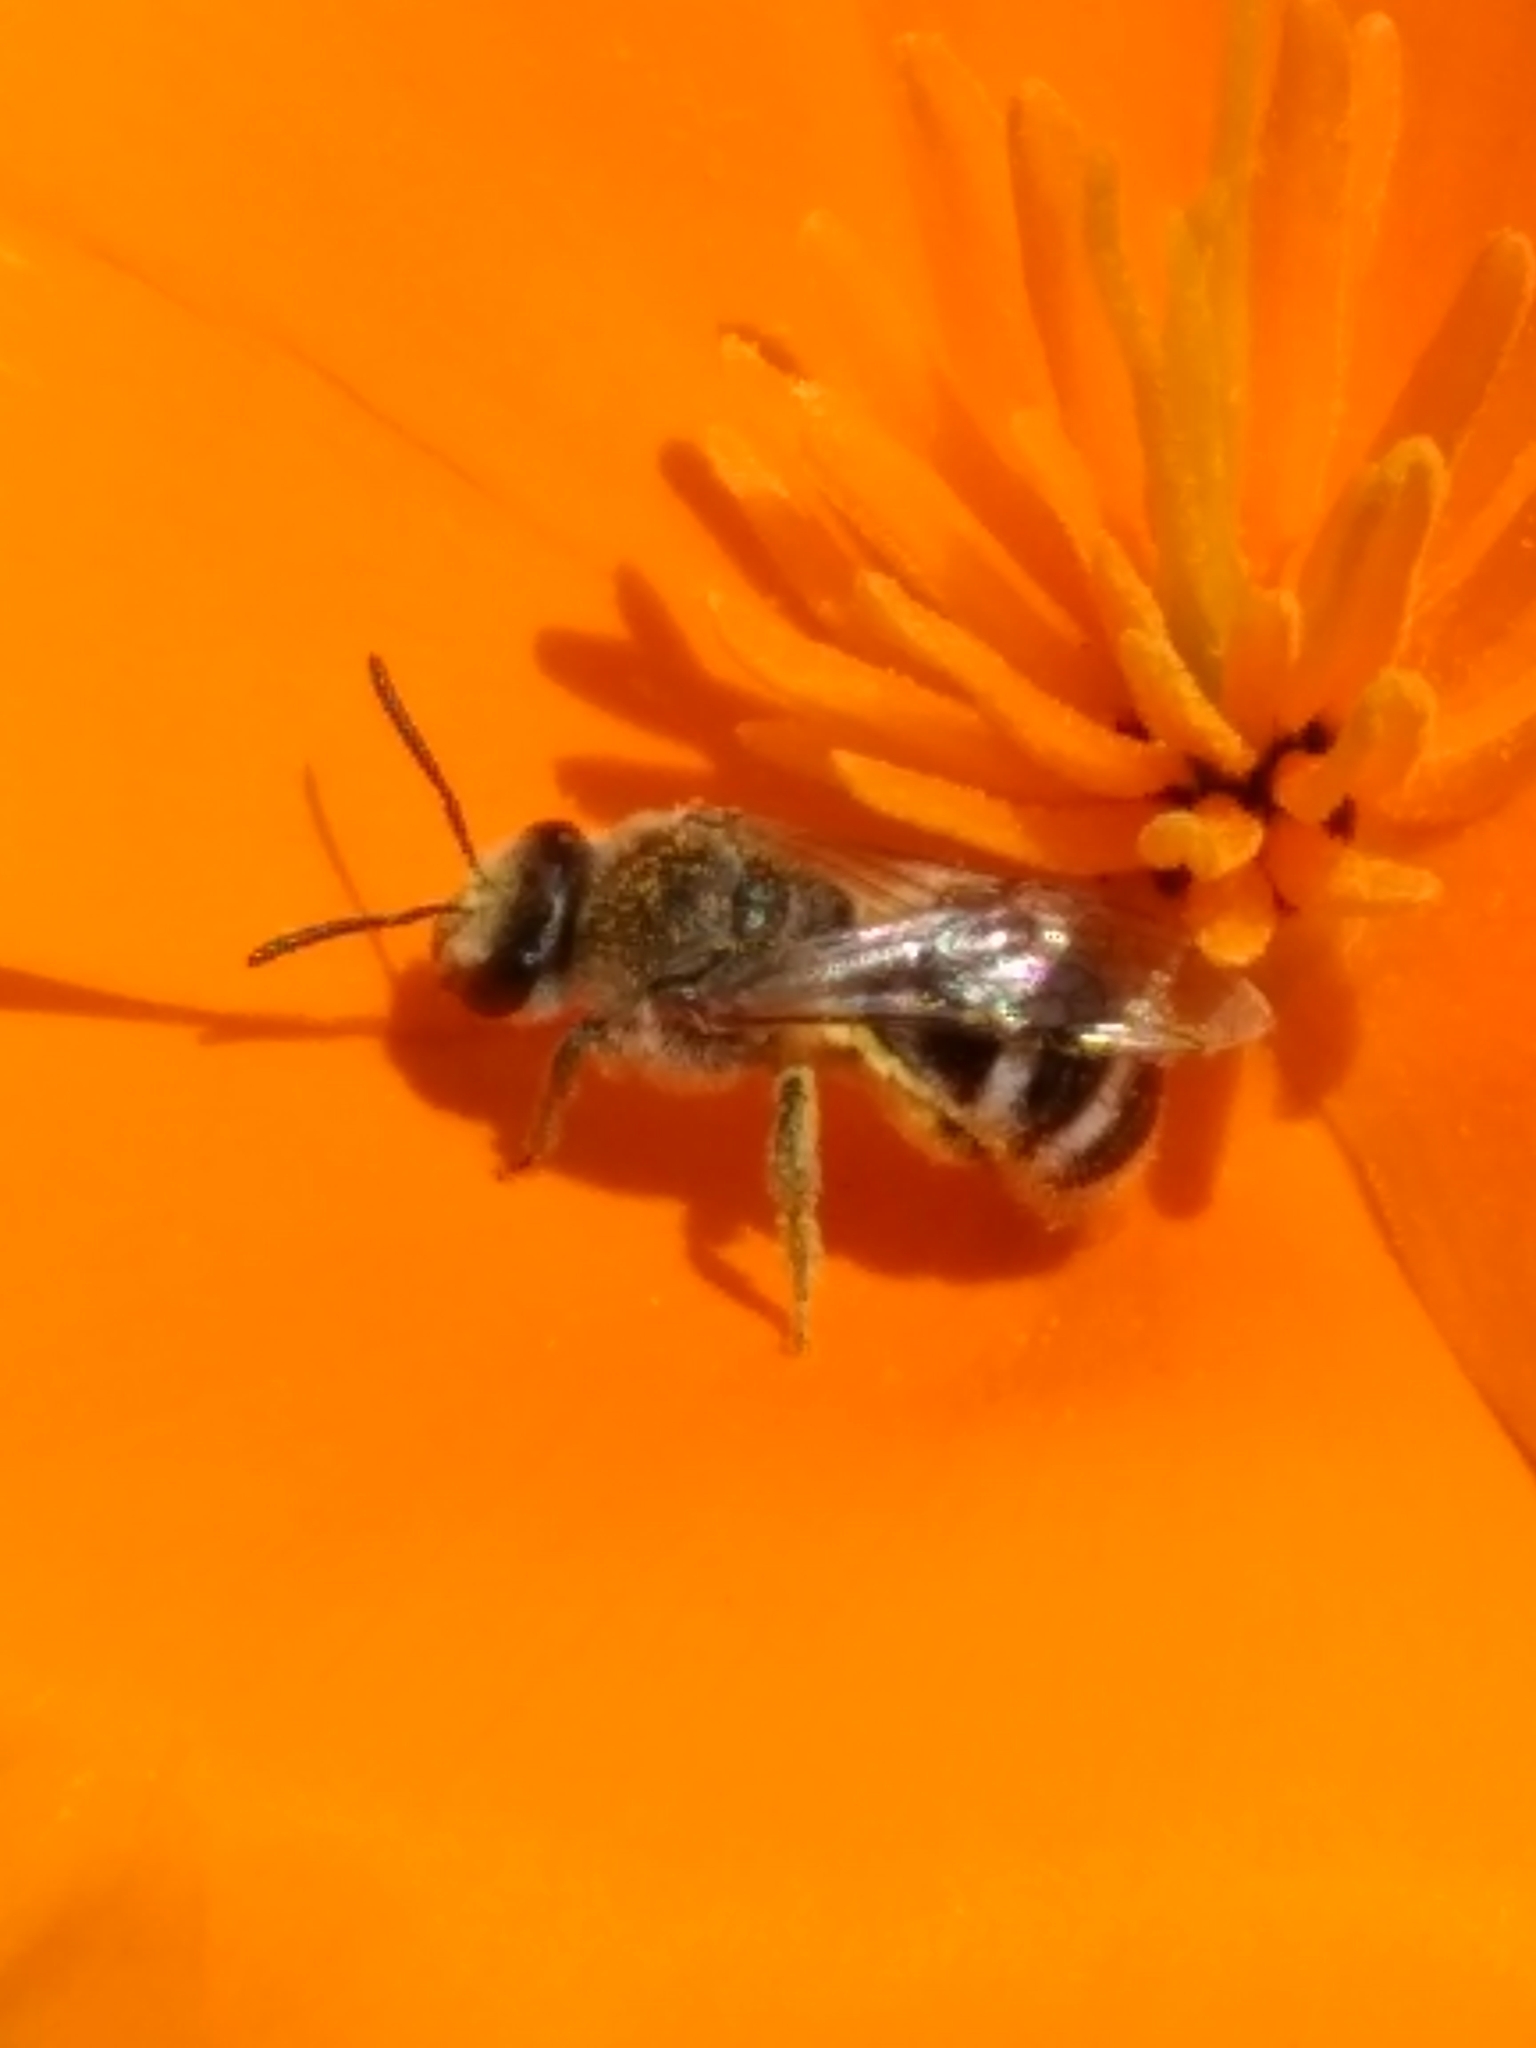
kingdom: Animalia
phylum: Arthropoda
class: Insecta
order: Hymenoptera
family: Halictidae
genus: Lasioglossum
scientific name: Lasioglossum sisymbrii
